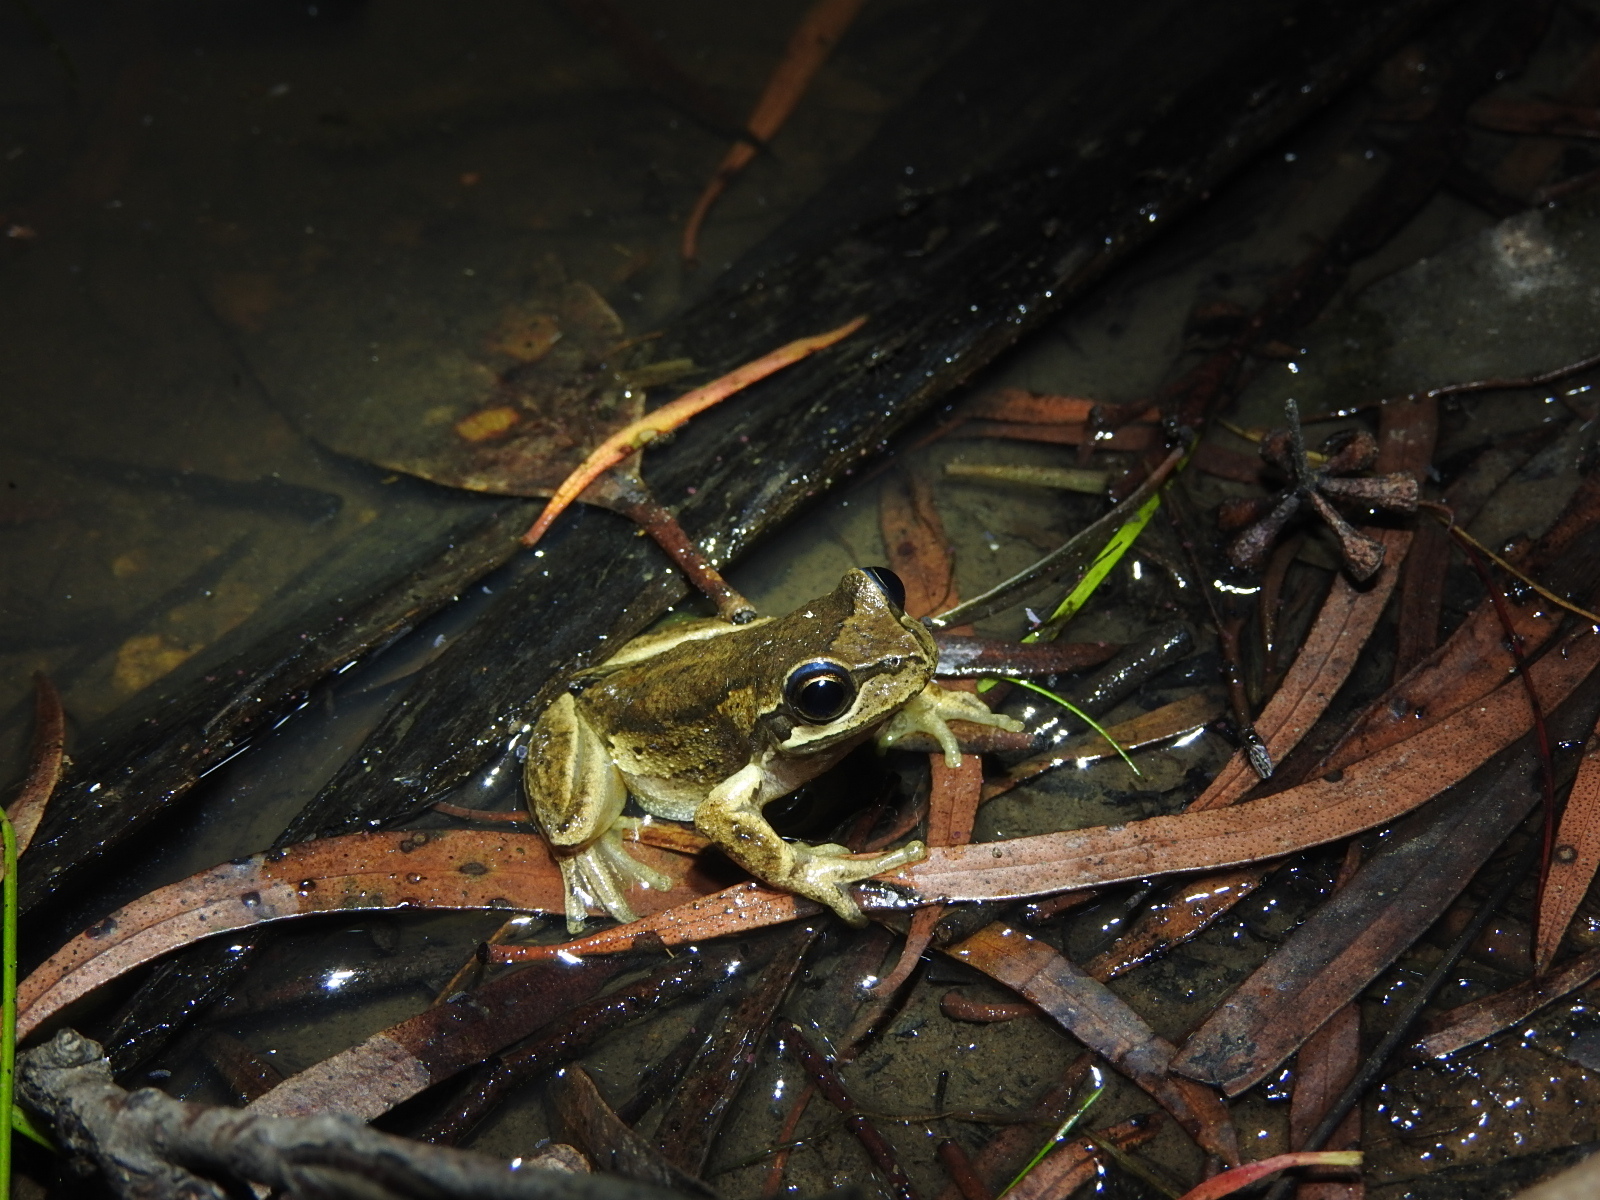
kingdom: Animalia
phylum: Chordata
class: Amphibia
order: Anura
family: Pelodryadidae
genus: Litoria
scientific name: Litoria ewingii
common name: Southern brown tree frog
